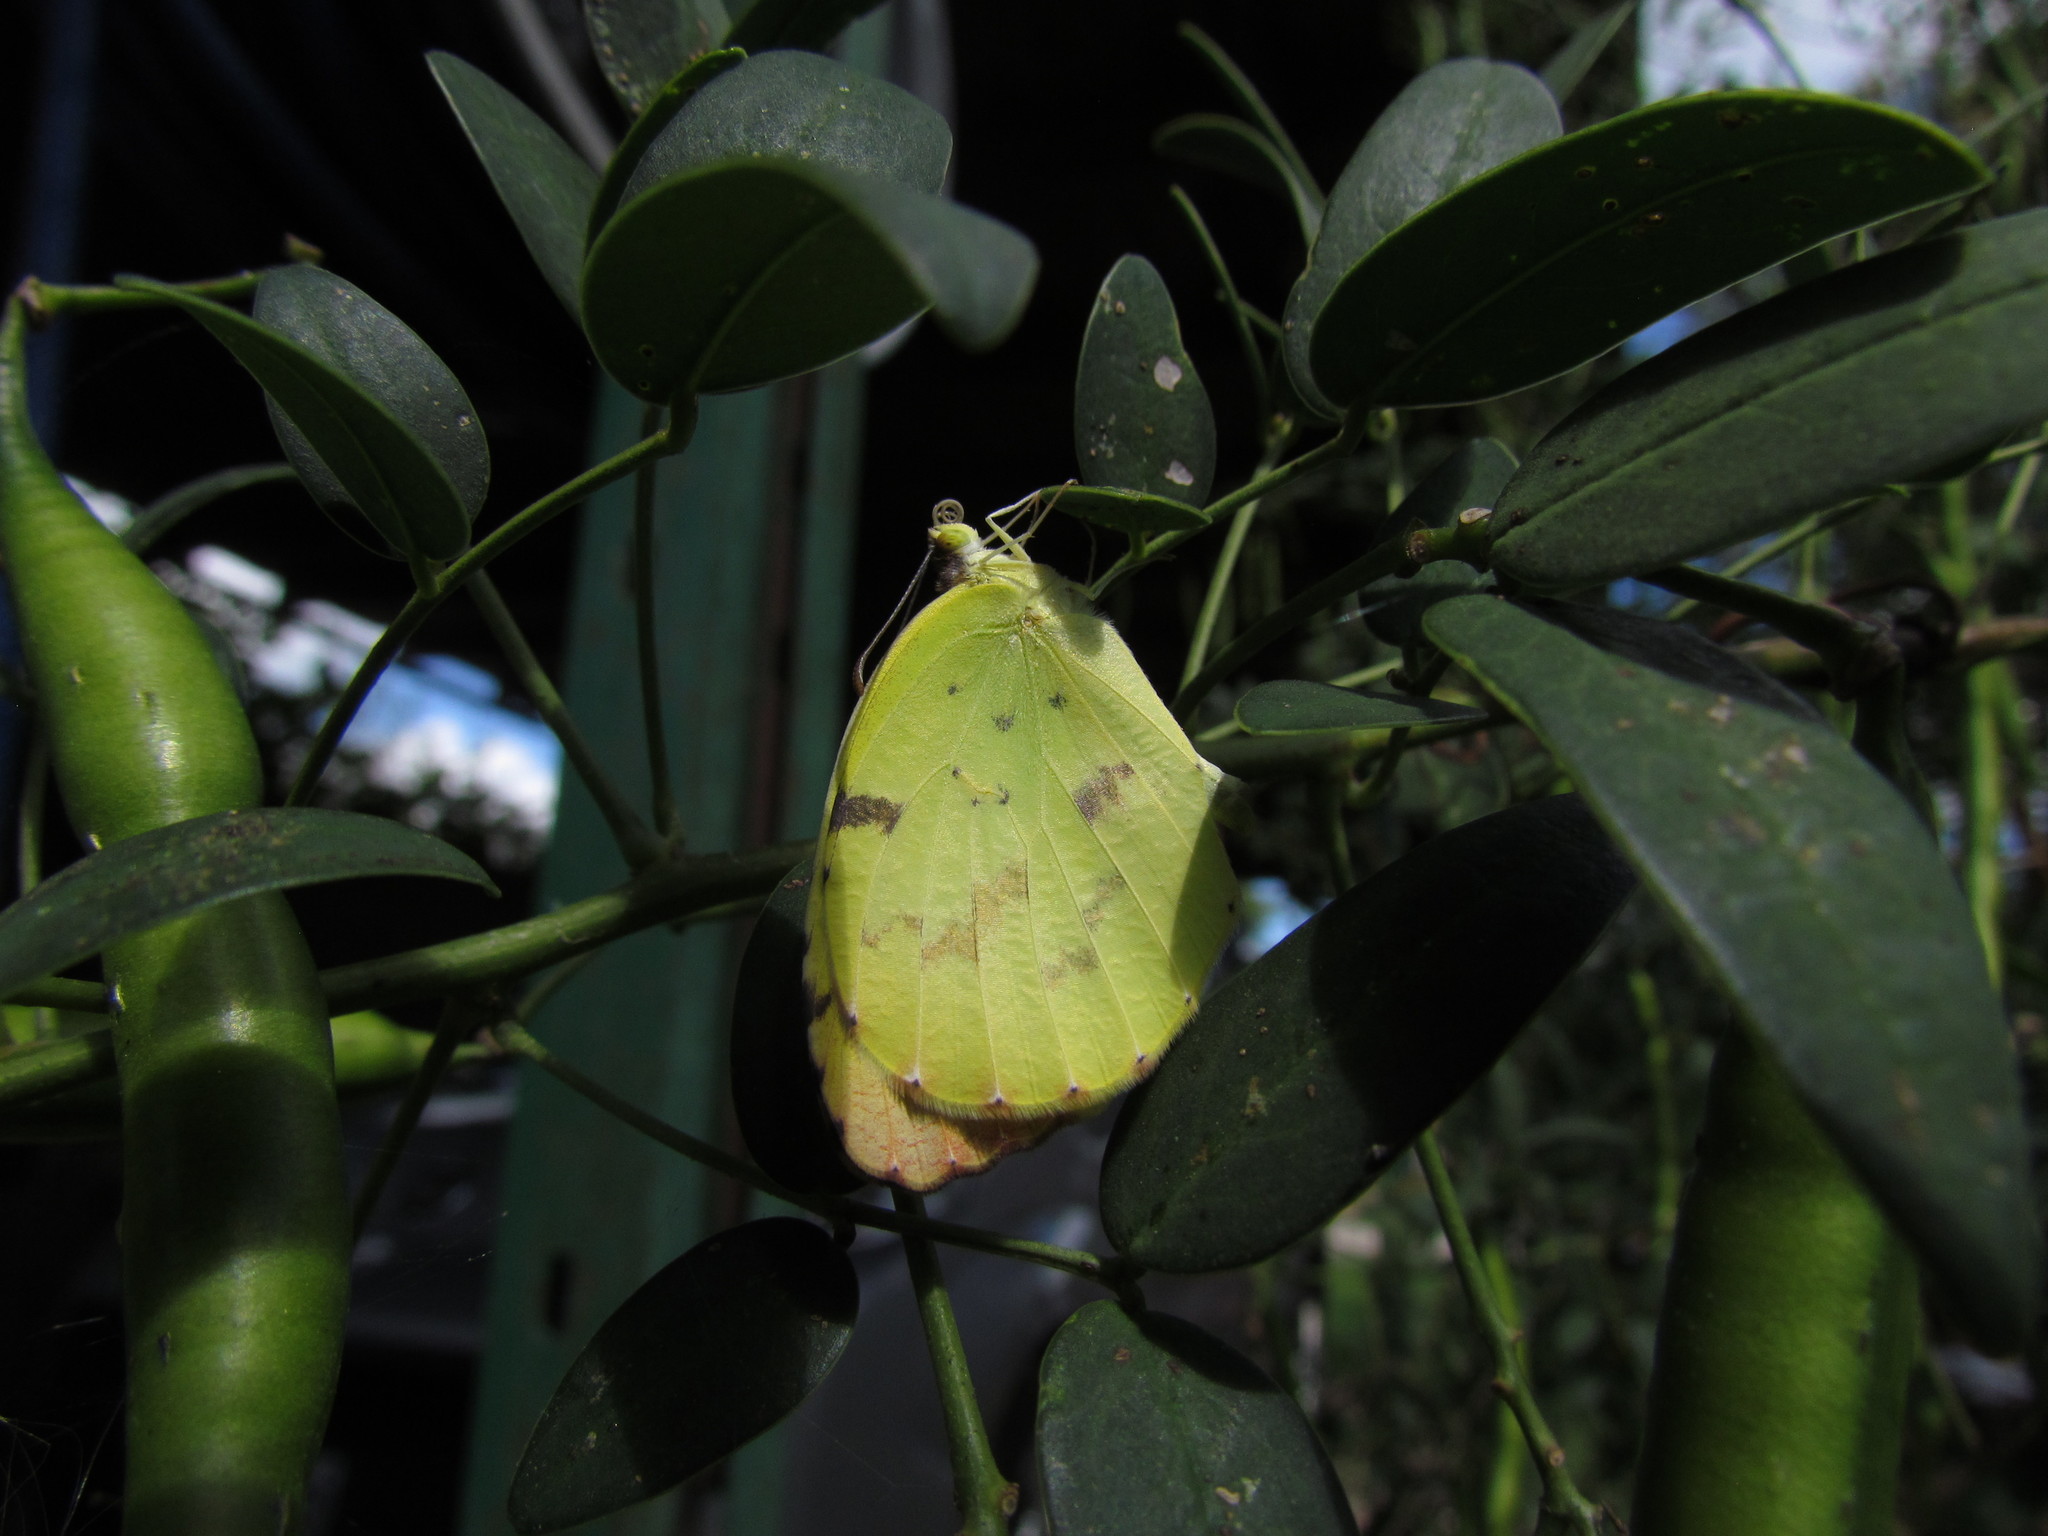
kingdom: Animalia
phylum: Arthropoda
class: Insecta
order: Lepidoptera
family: Pieridae
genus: Teriocolias
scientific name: Teriocolias
